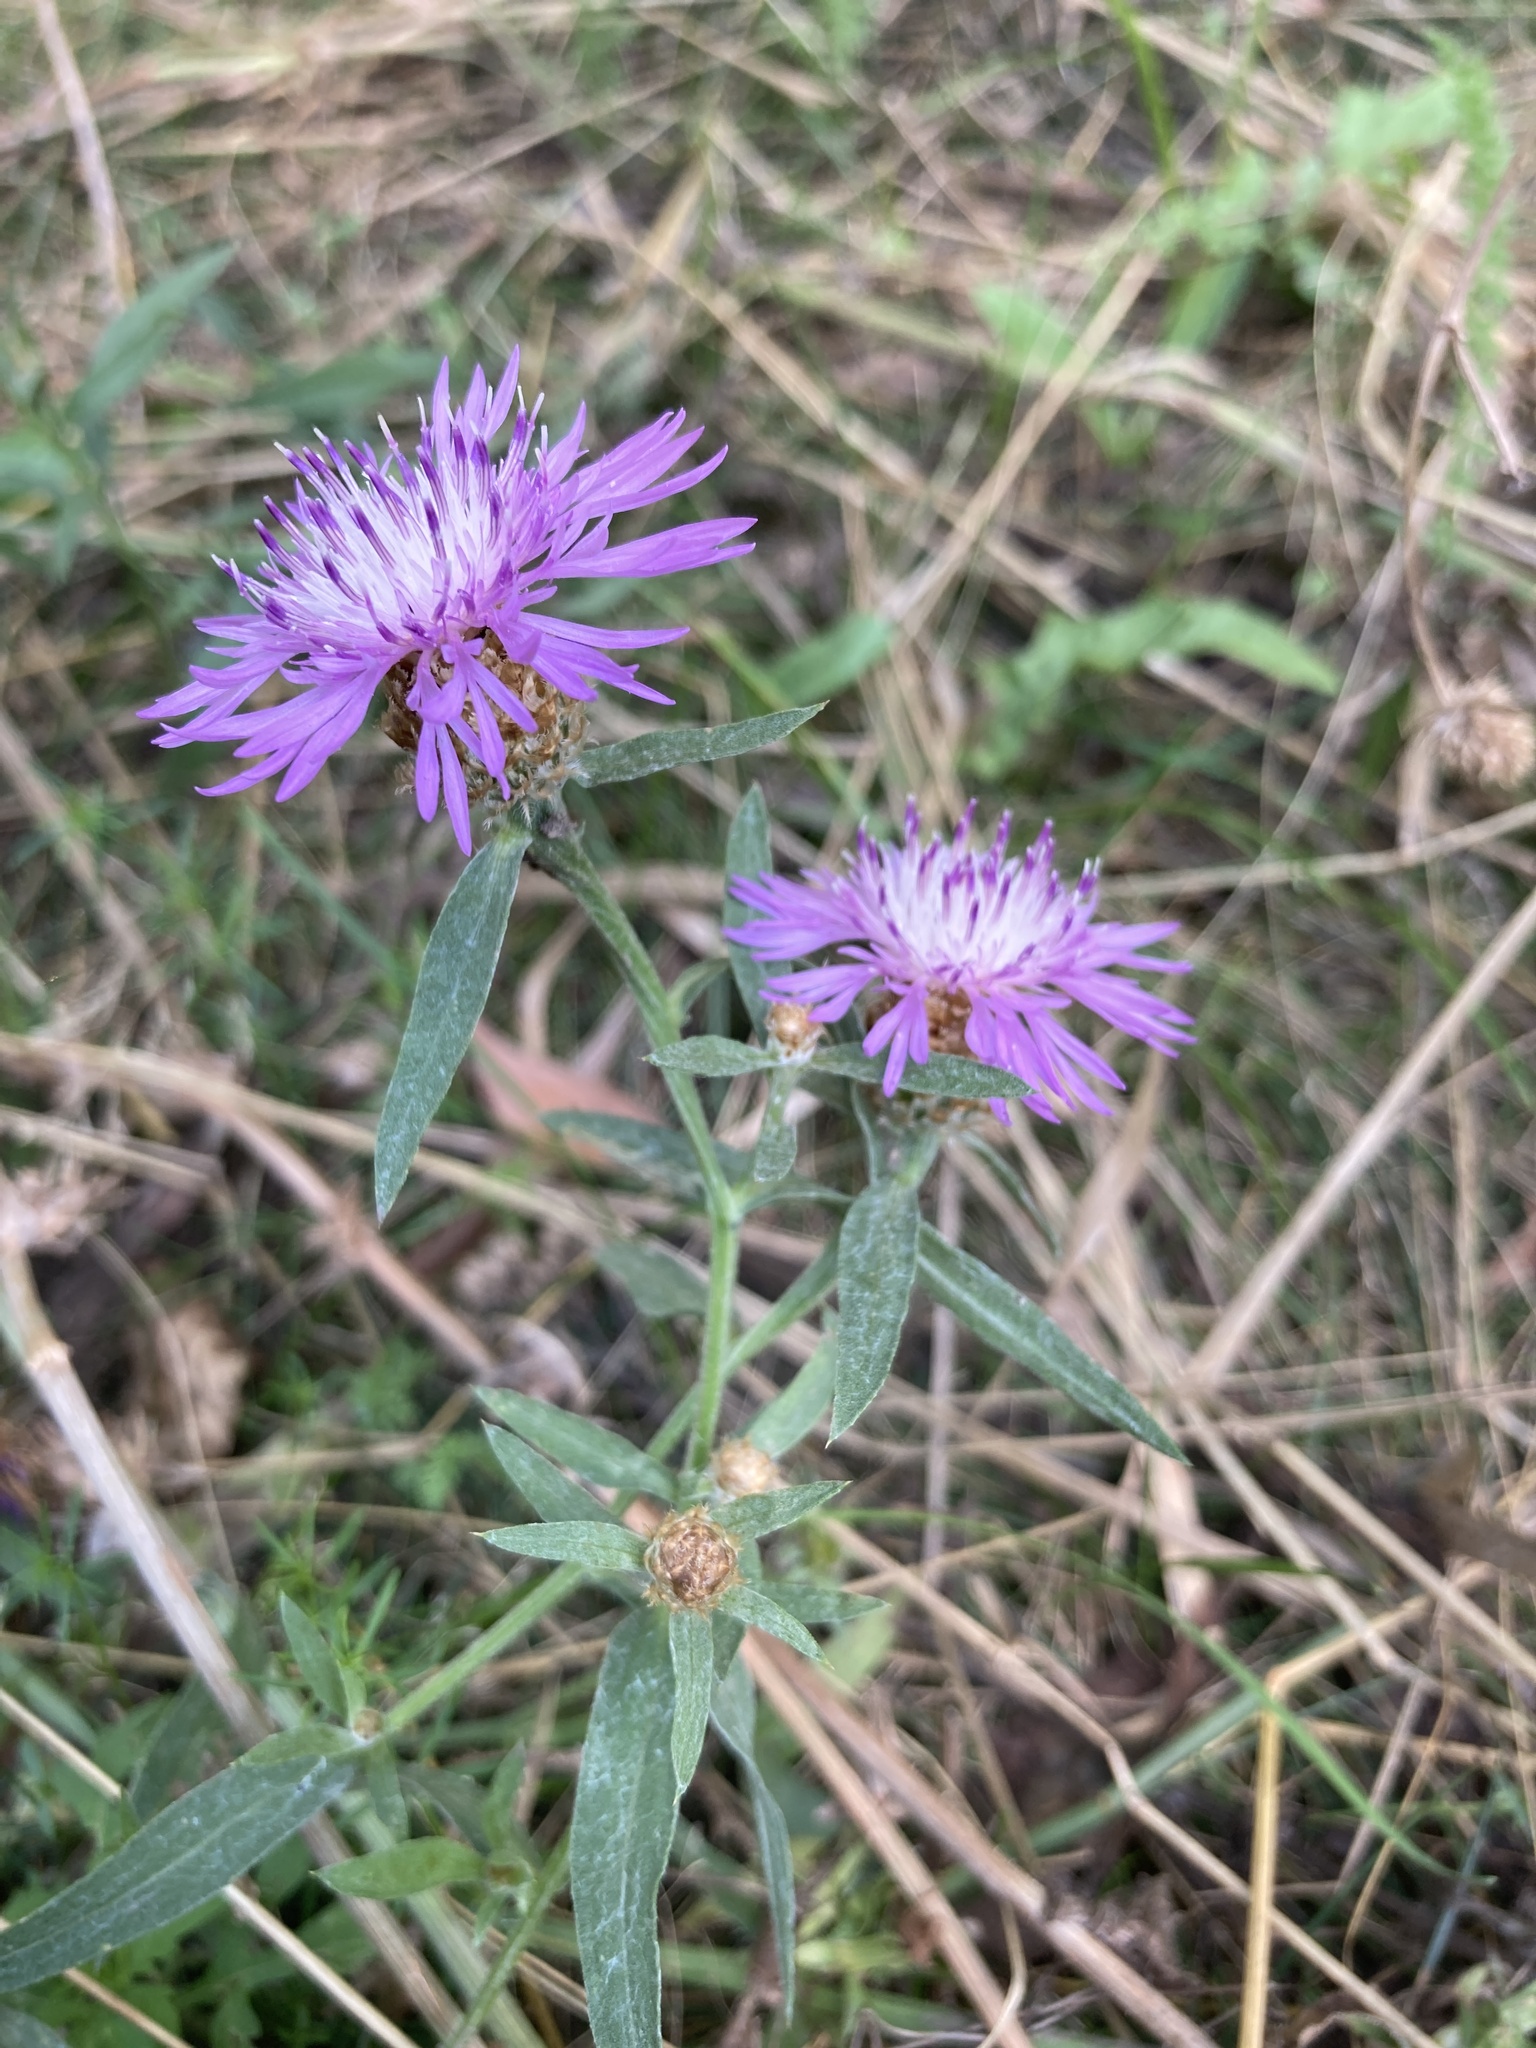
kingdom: Plantae
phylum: Tracheophyta
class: Magnoliopsida
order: Asterales
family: Asteraceae
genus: Centaurea
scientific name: Centaurea jacea
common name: Brown knapweed
